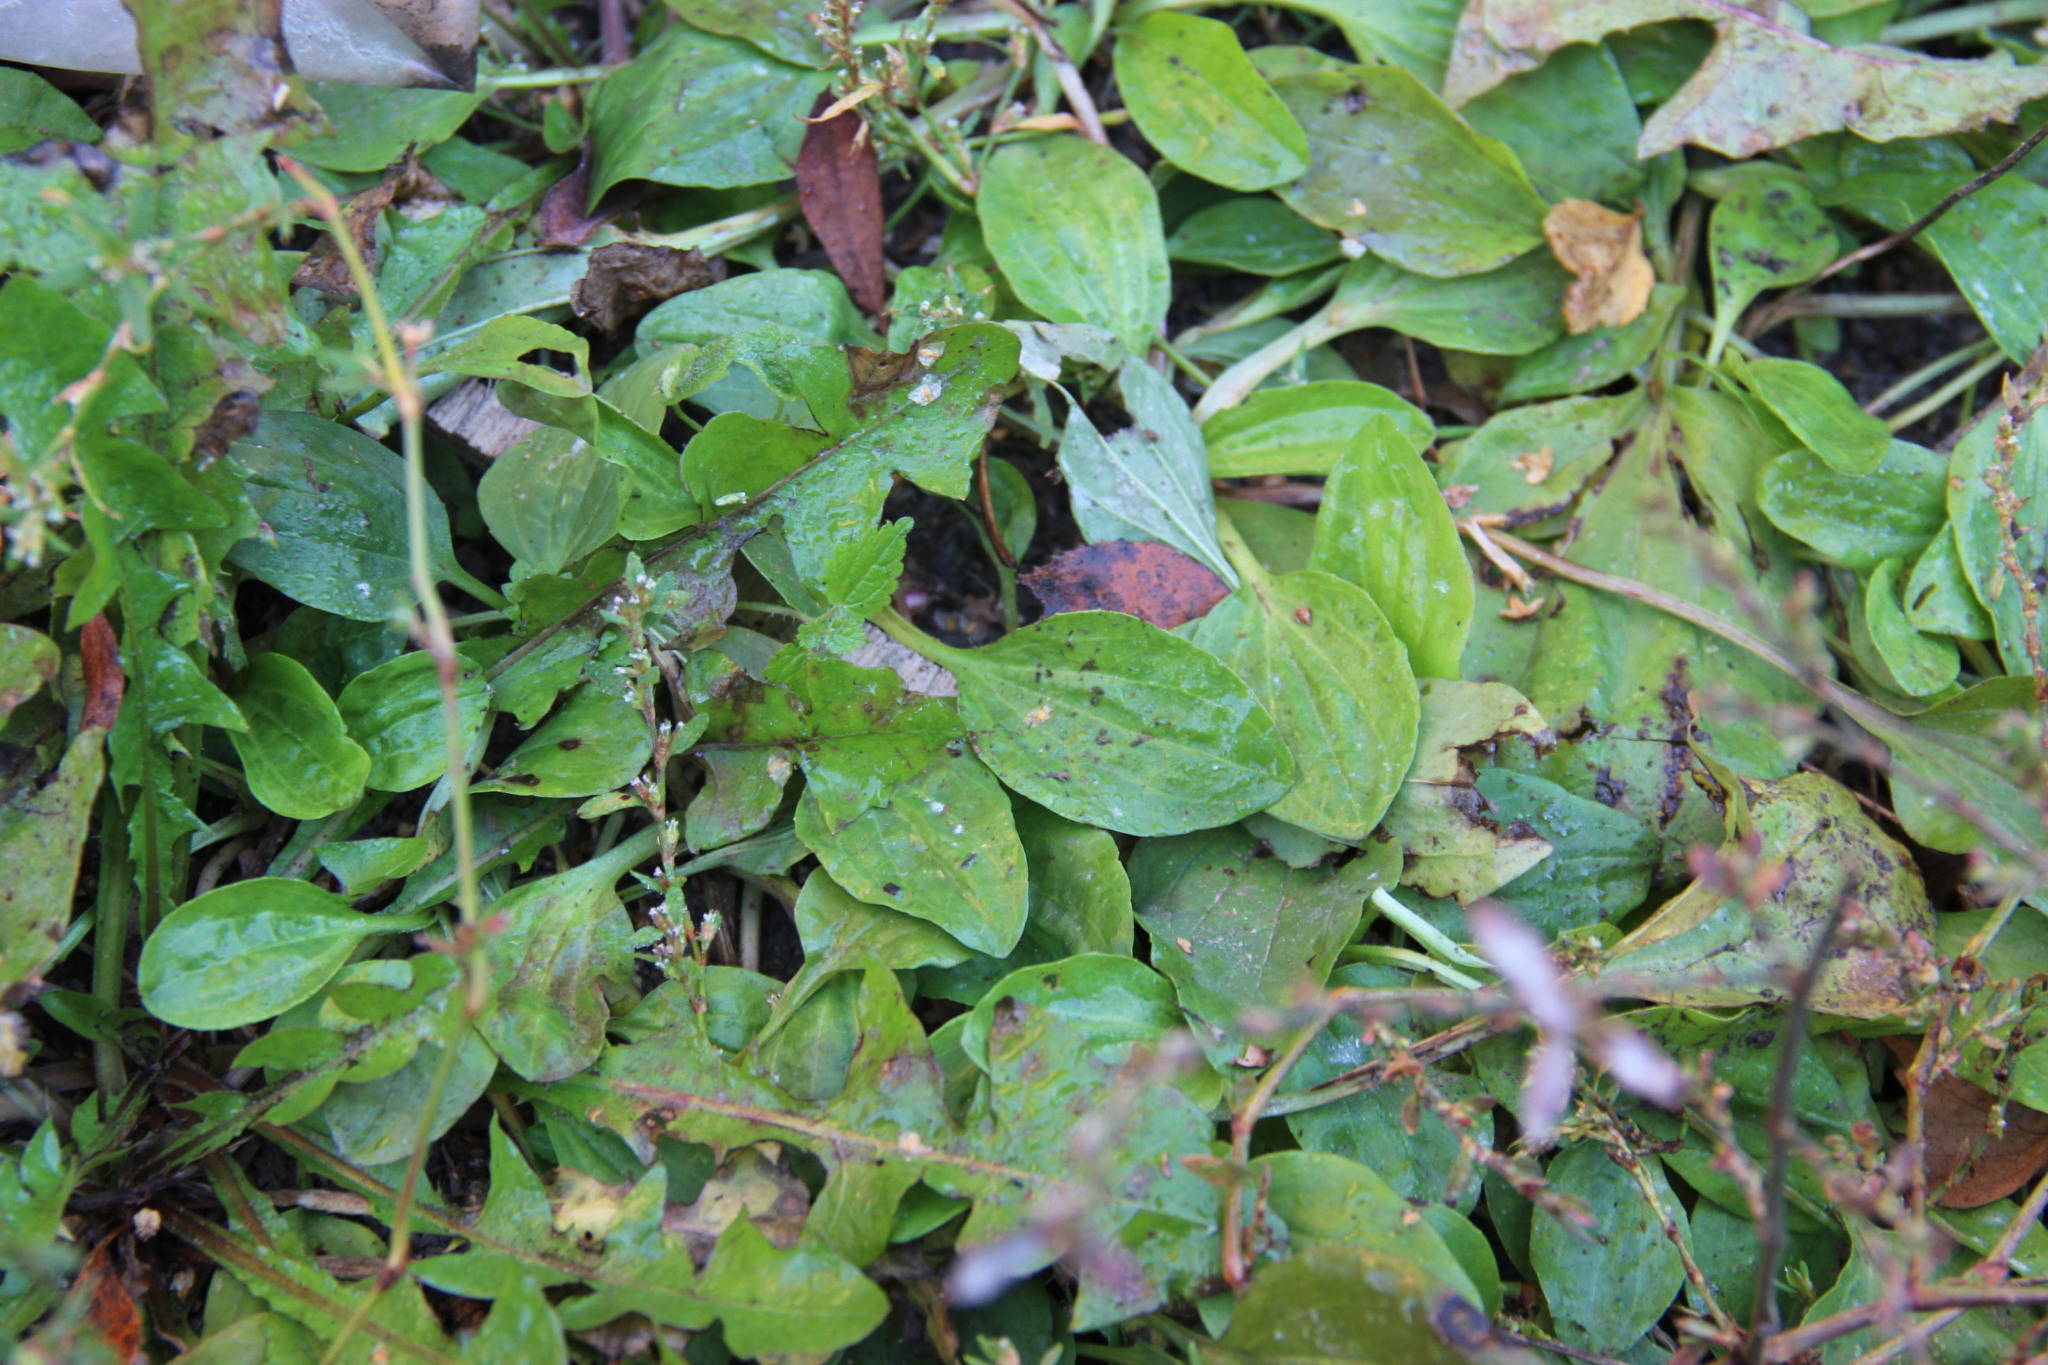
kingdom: Plantae
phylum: Tracheophyta
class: Magnoliopsida
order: Lamiales
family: Plantaginaceae
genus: Plantago
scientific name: Plantago major
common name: Common plantain
